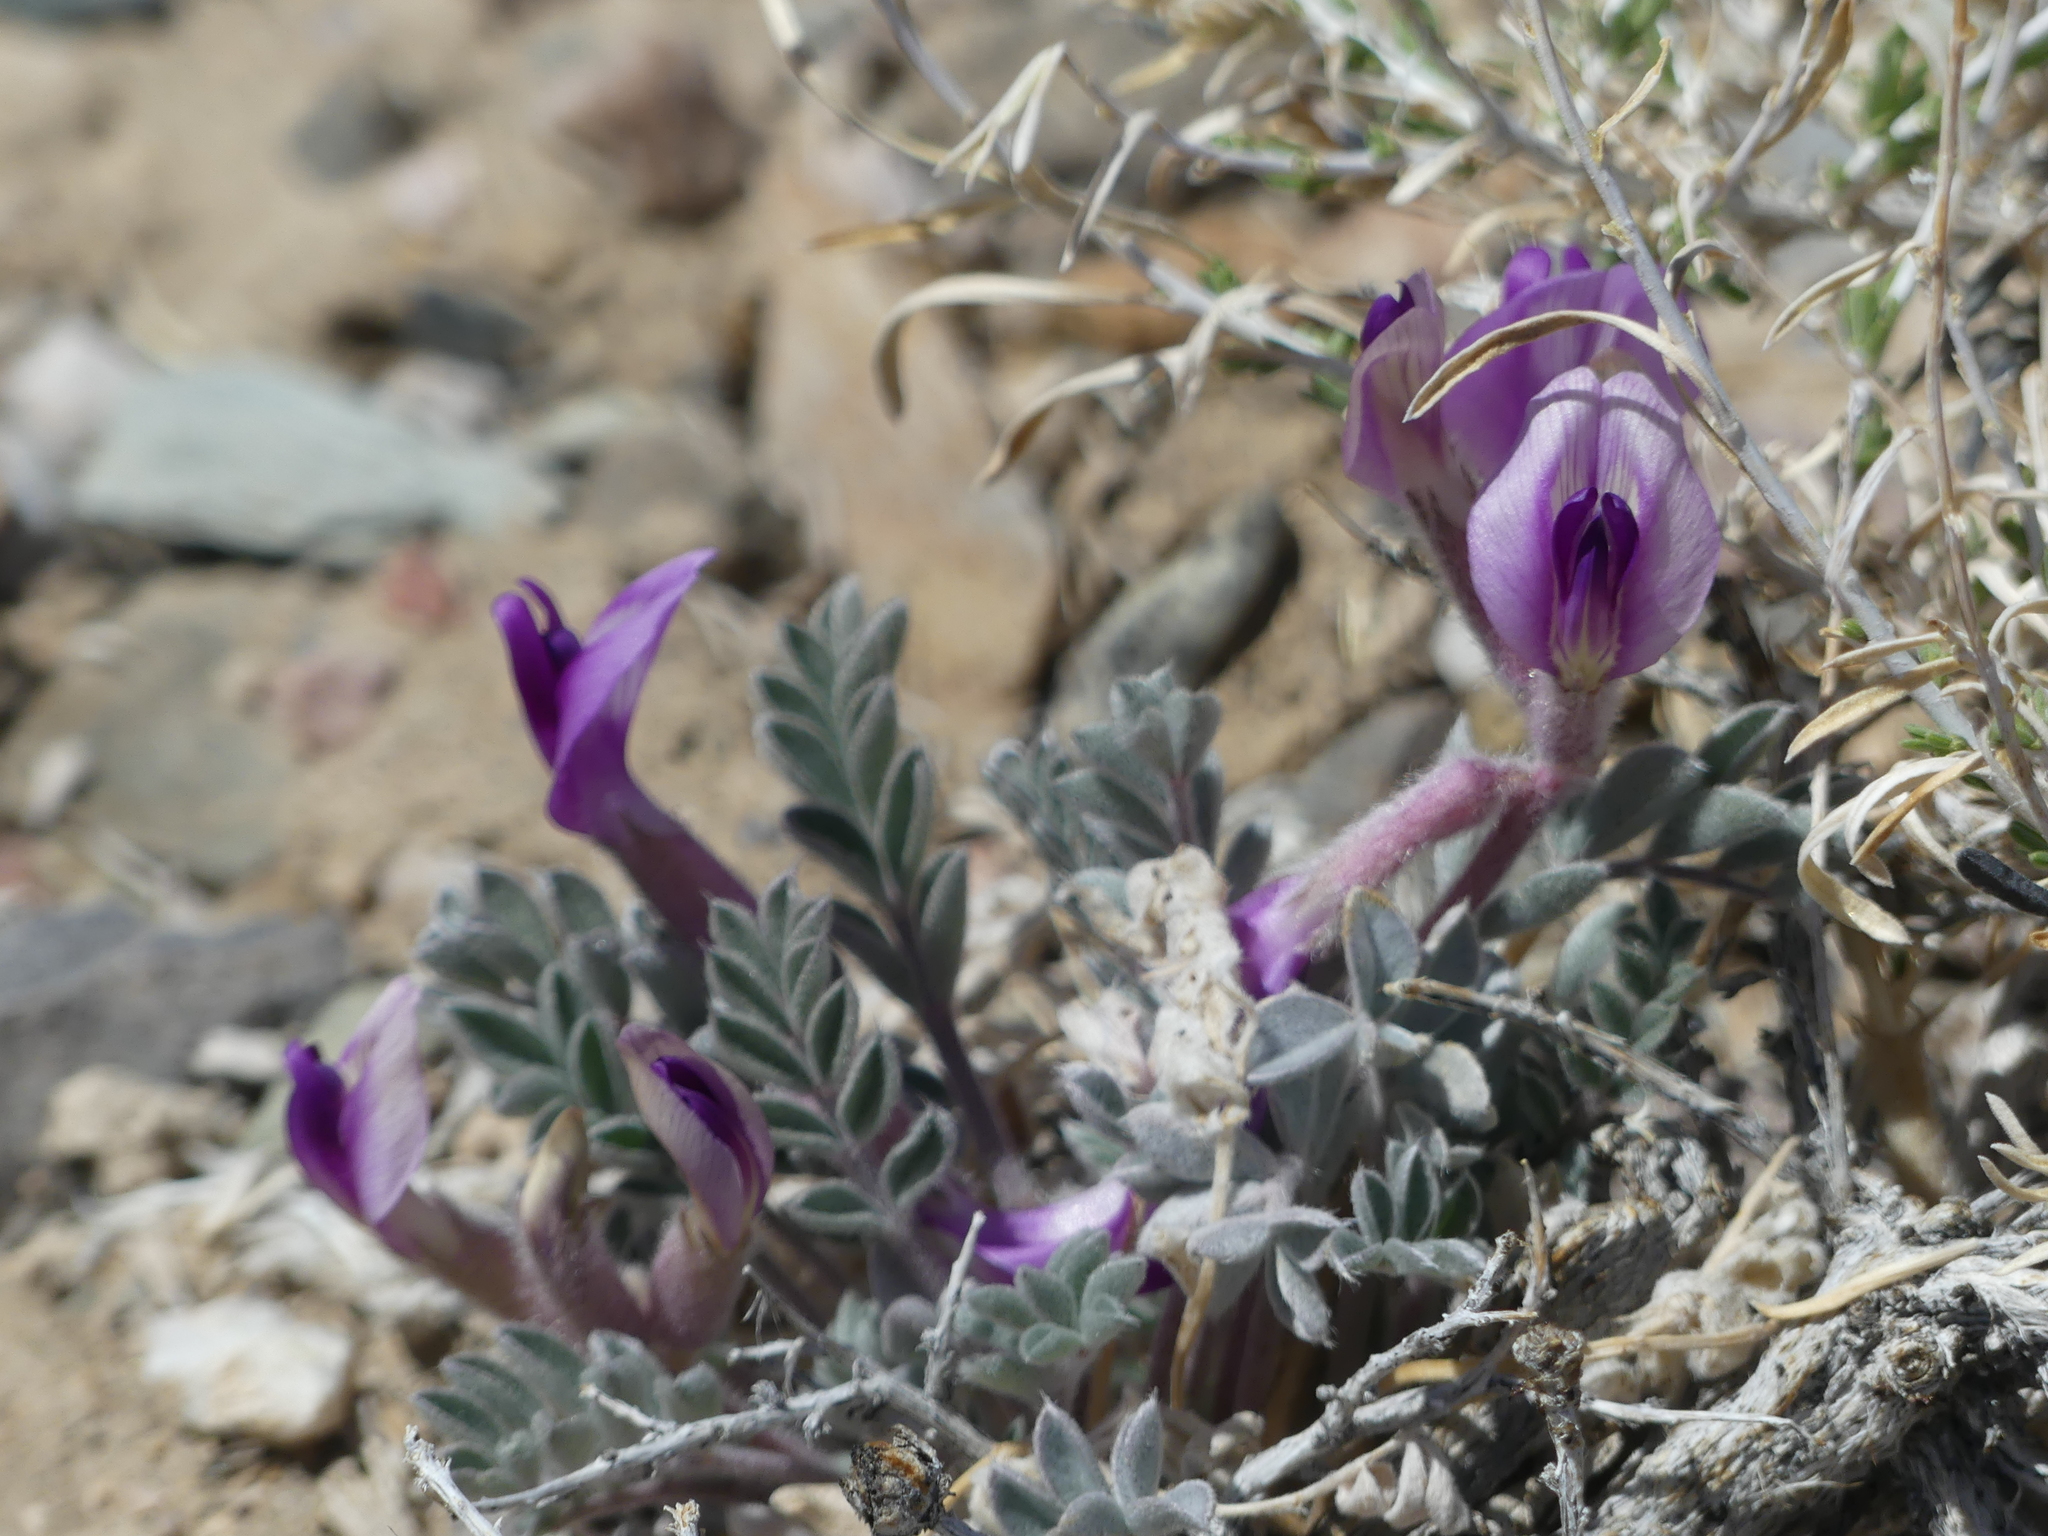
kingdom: Plantae
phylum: Tracheophyta
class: Magnoliopsida
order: Fabales
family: Fabaceae
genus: Astragalus
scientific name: Astragalus newberryi
